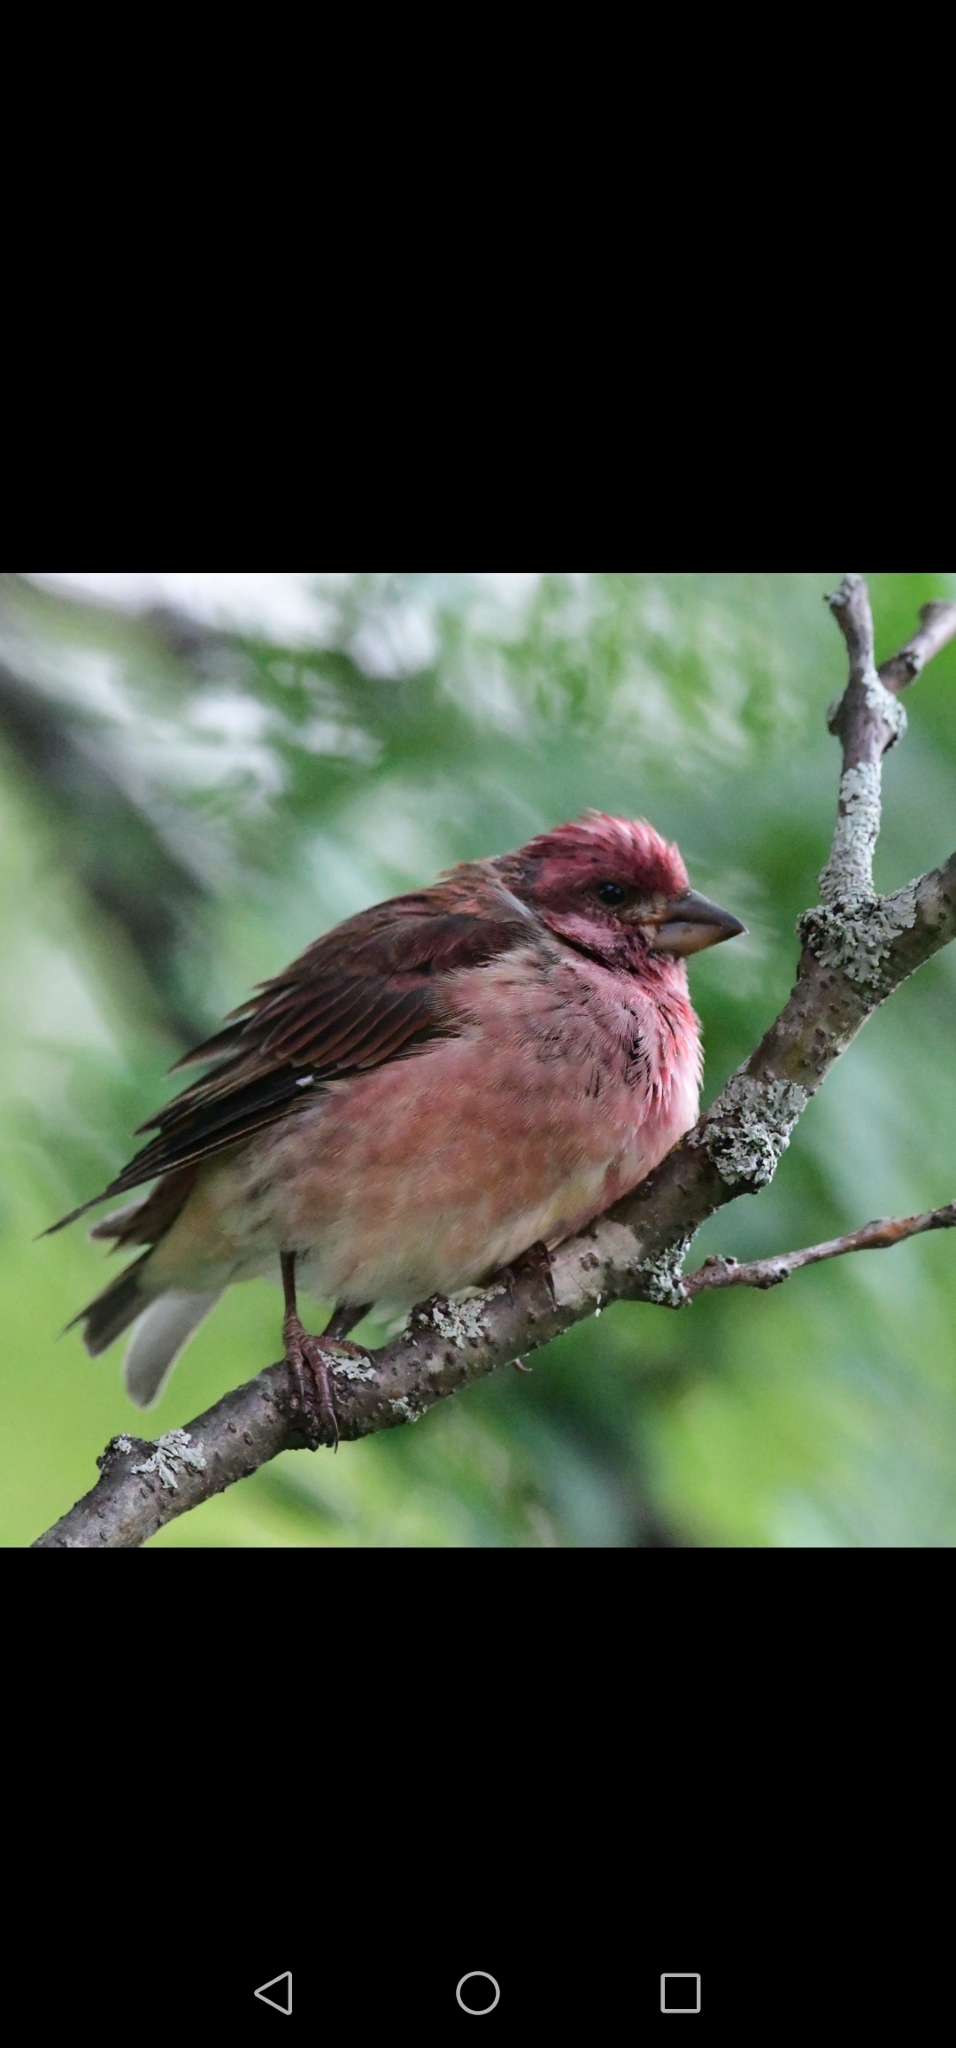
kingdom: Animalia
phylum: Chordata
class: Aves
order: Passeriformes
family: Fringillidae
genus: Haemorhous
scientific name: Haemorhous purpureus
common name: Purple finch
